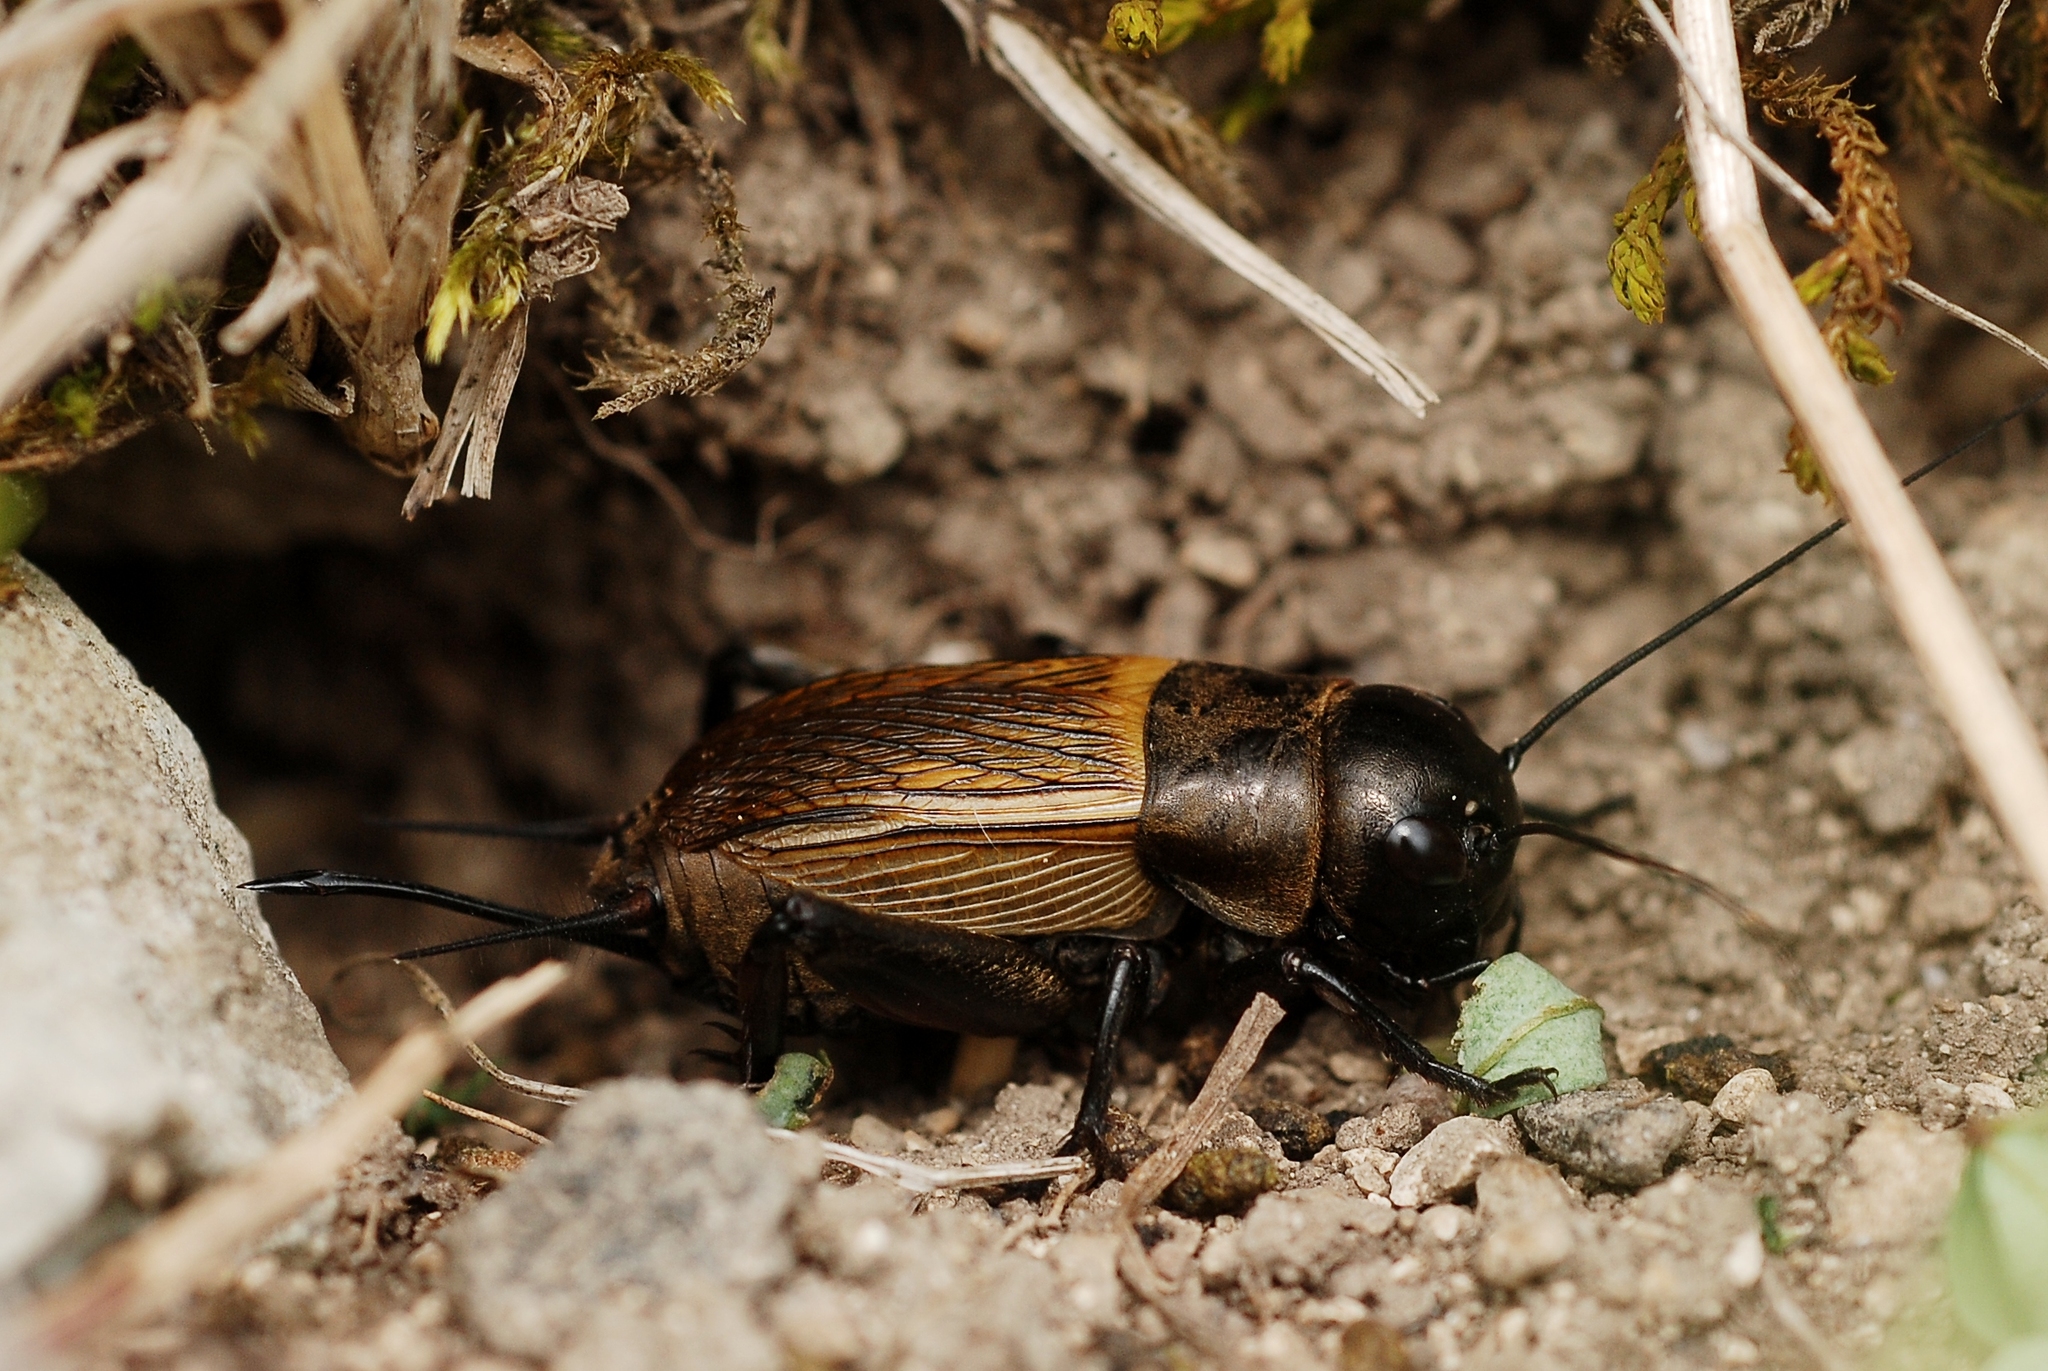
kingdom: Animalia
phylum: Arthropoda
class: Insecta
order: Orthoptera
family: Gryllidae
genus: Gryllus
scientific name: Gryllus campestris
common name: Field cricket
